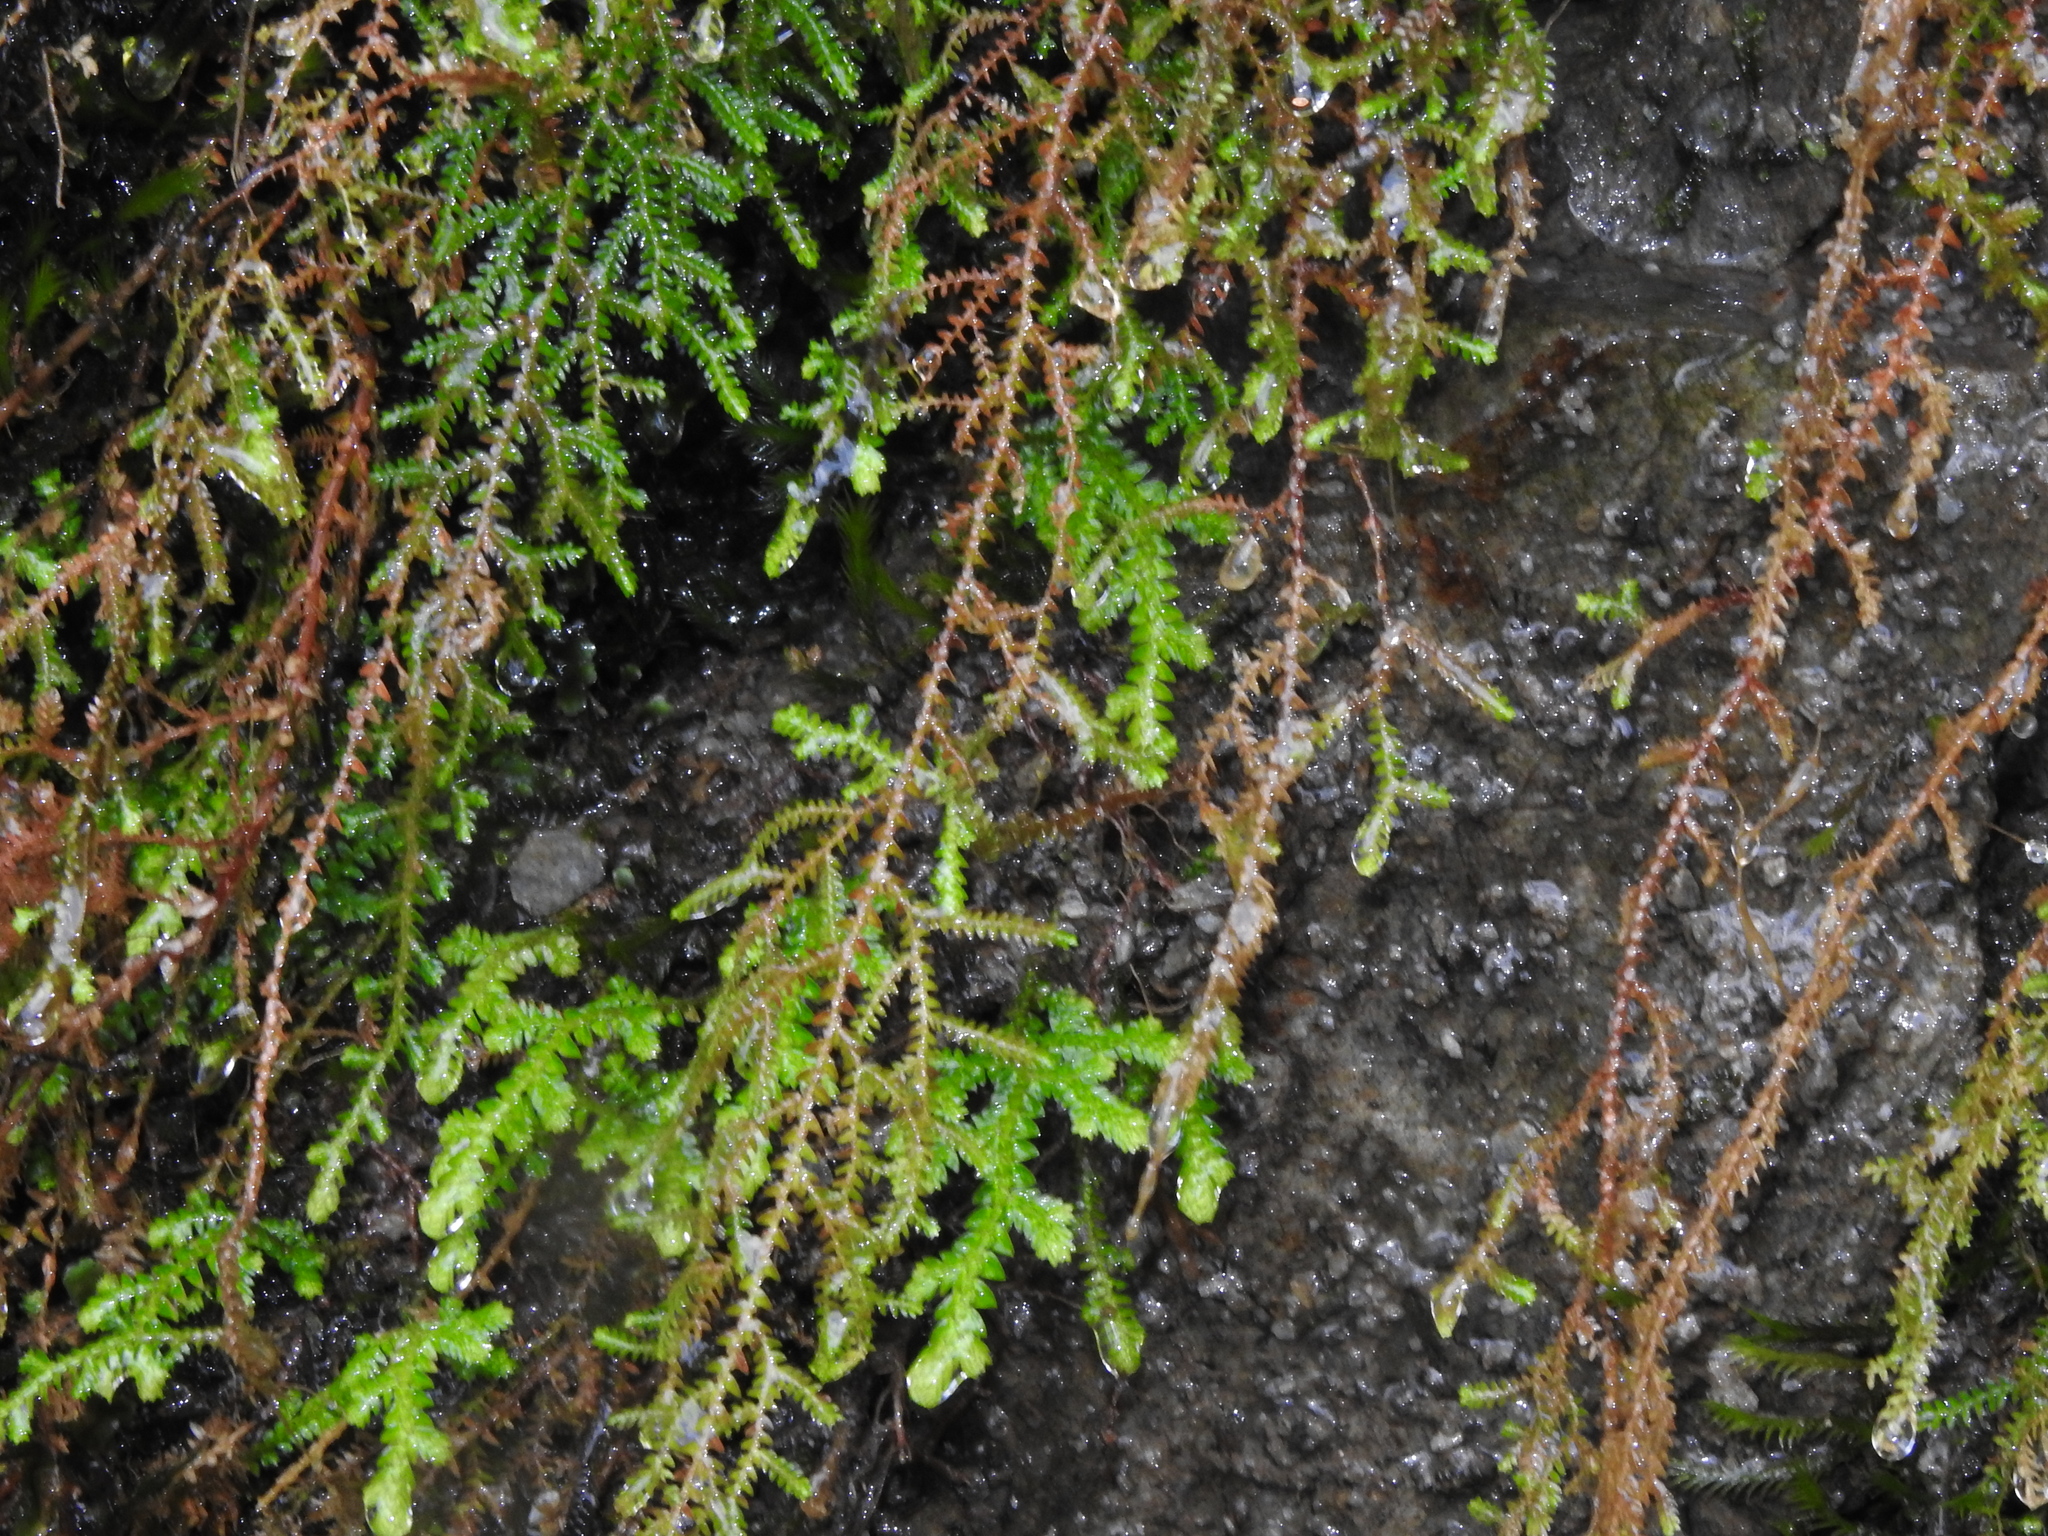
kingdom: Plantae
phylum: Tracheophyta
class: Lycopodiopsida
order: Selaginellales
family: Selaginellaceae
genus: Selaginella
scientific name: Selaginella labordei
